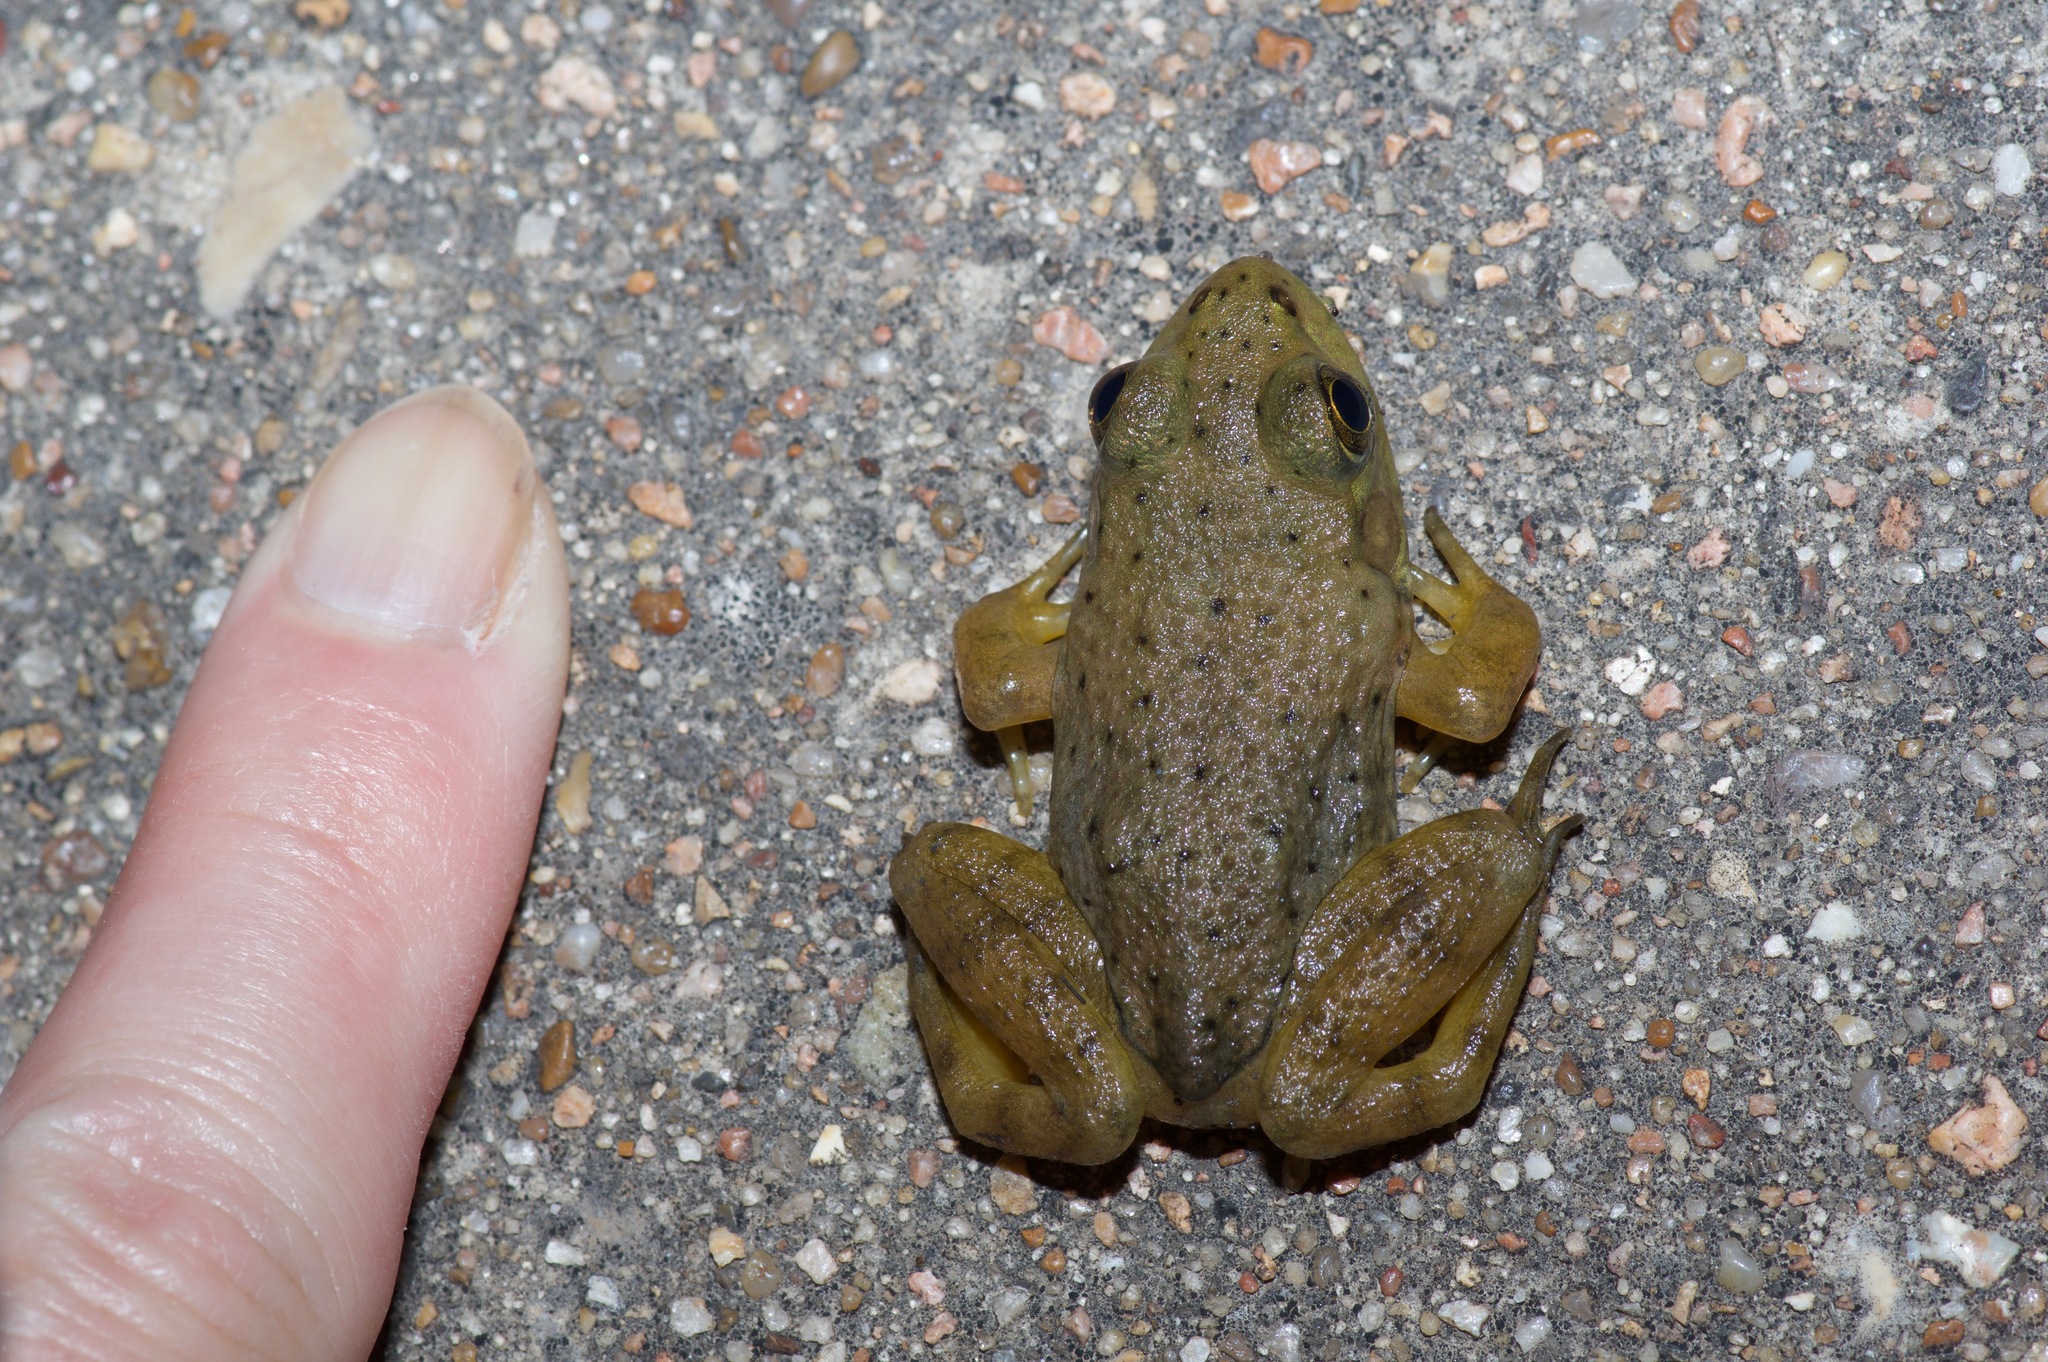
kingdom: Animalia
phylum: Chordata
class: Amphibia
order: Anura
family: Ranidae
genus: Lithobates
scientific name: Lithobates catesbeianus
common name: American bullfrog
